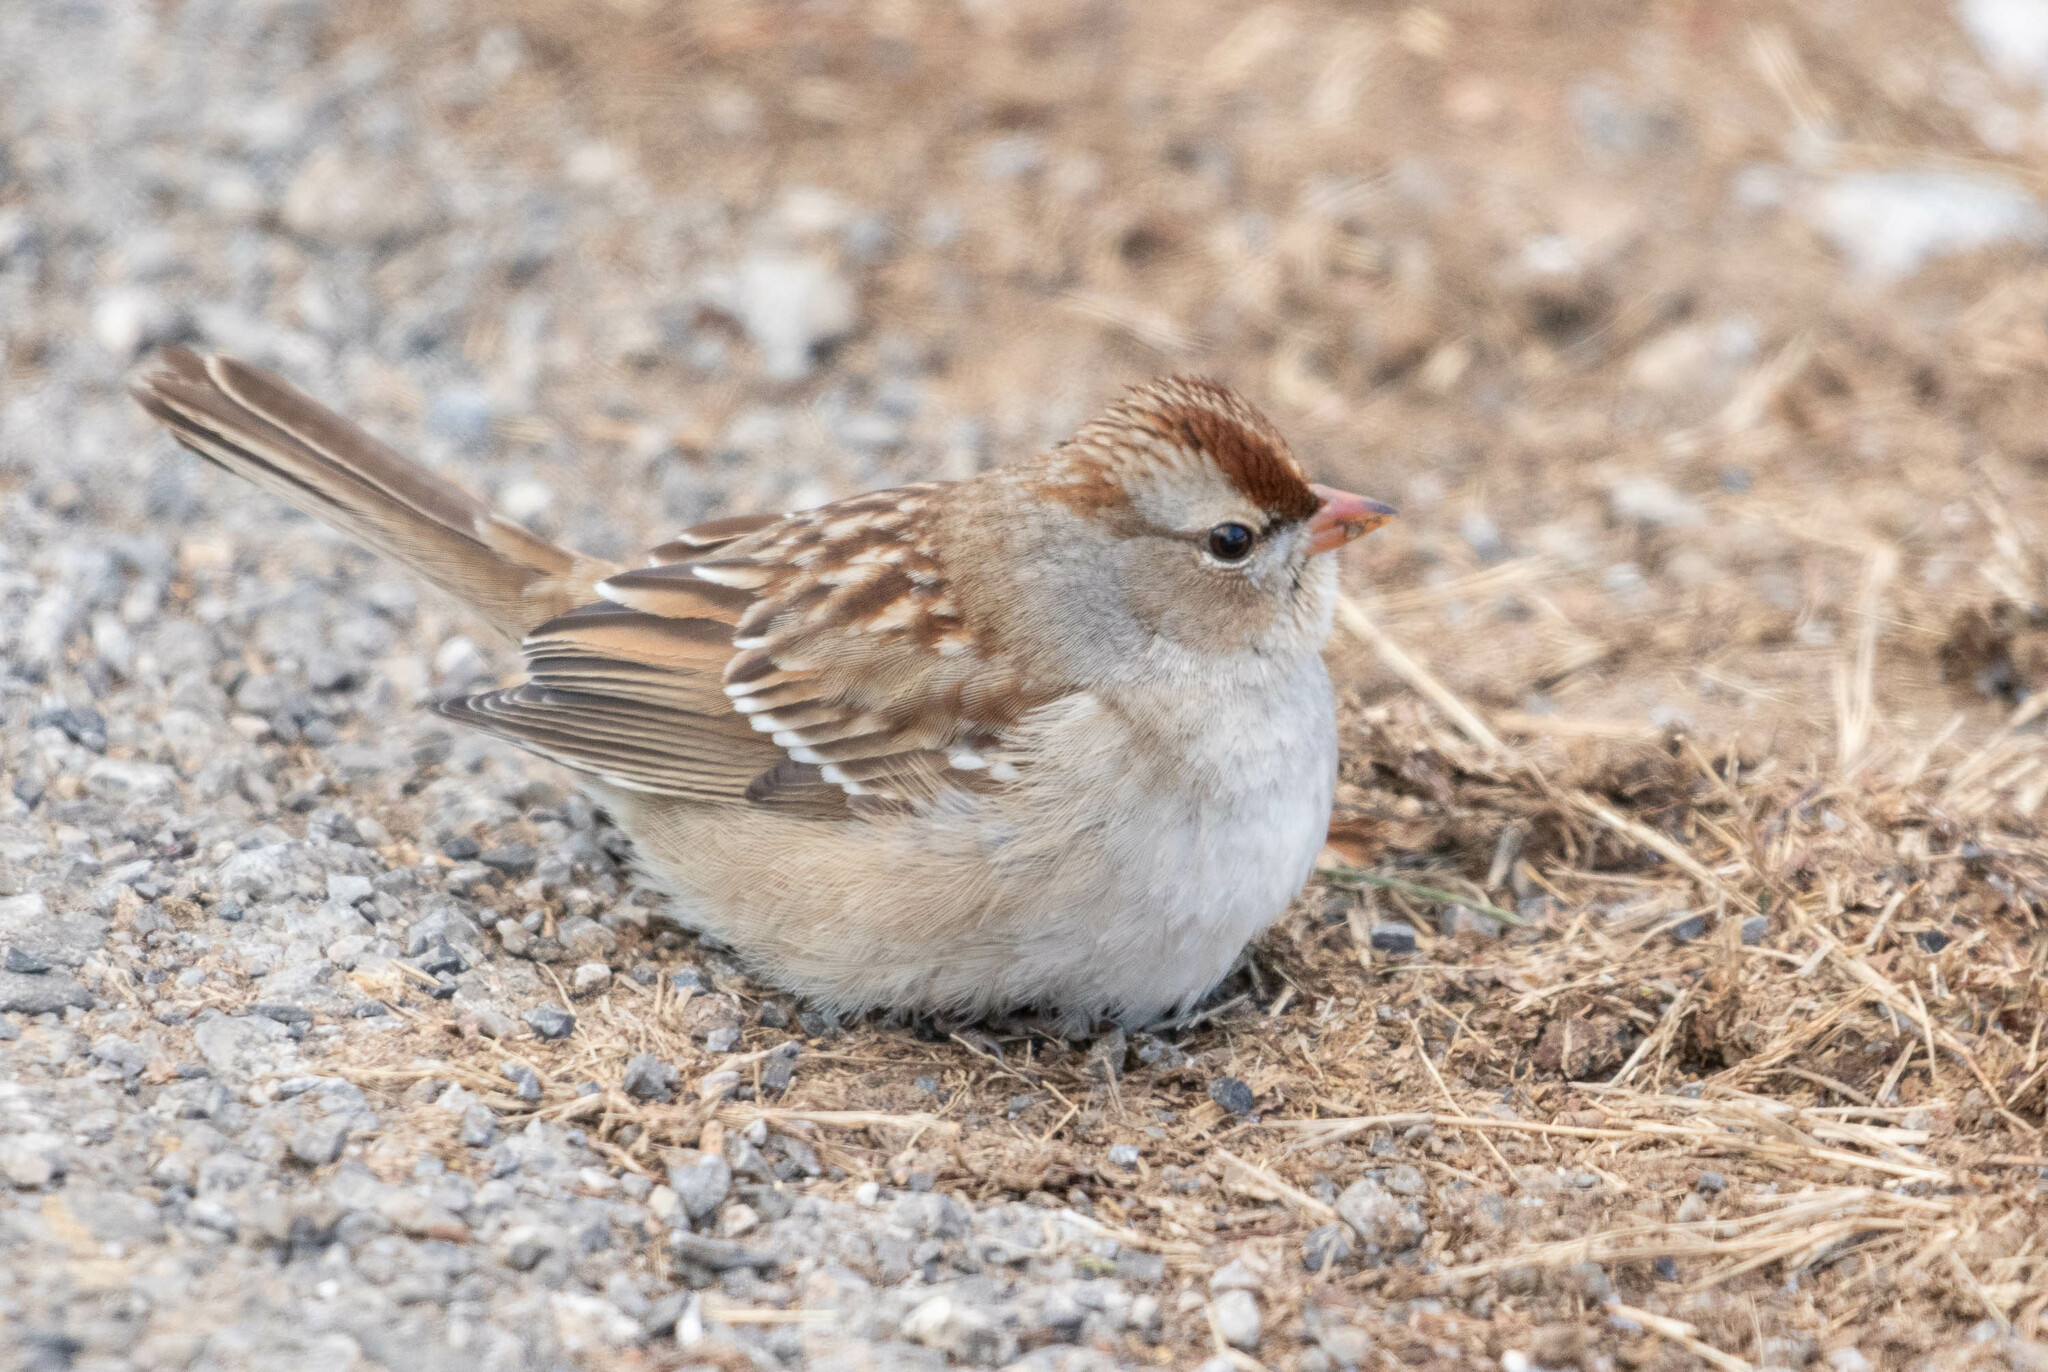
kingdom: Animalia
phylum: Chordata
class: Aves
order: Passeriformes
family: Passerellidae
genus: Zonotrichia
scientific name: Zonotrichia leucophrys
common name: White-crowned sparrow
